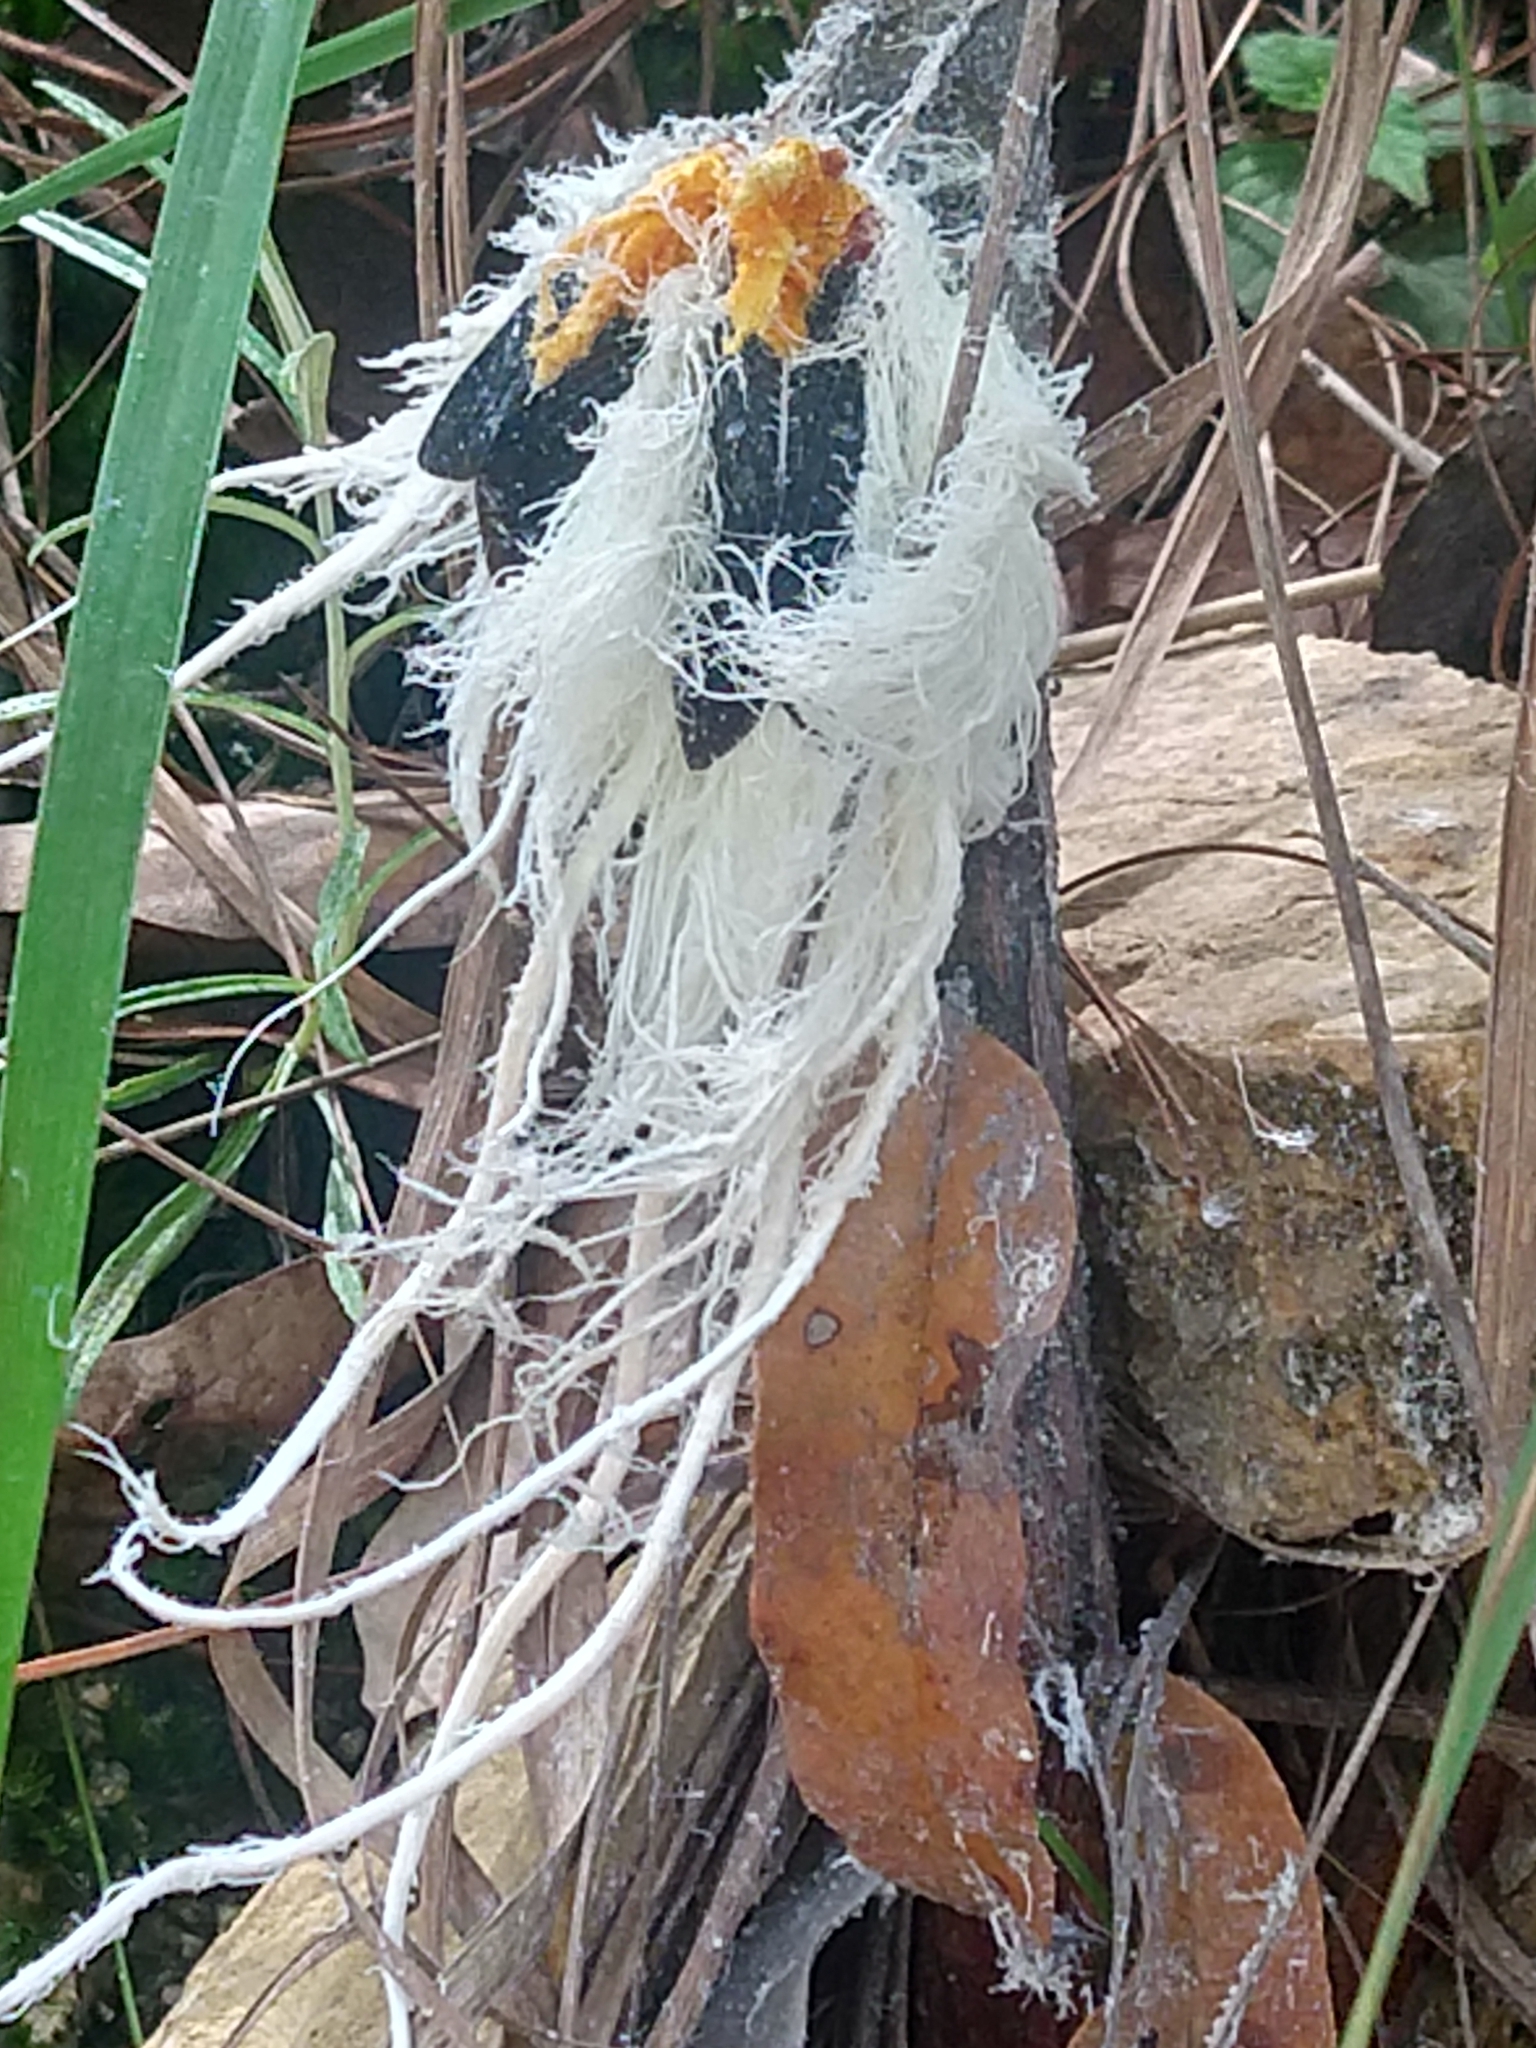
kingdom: Animalia
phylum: Arthropoda
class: Insecta
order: Hemiptera
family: Fulgoridae
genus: Cerogenes
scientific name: Cerogenes auricoma
